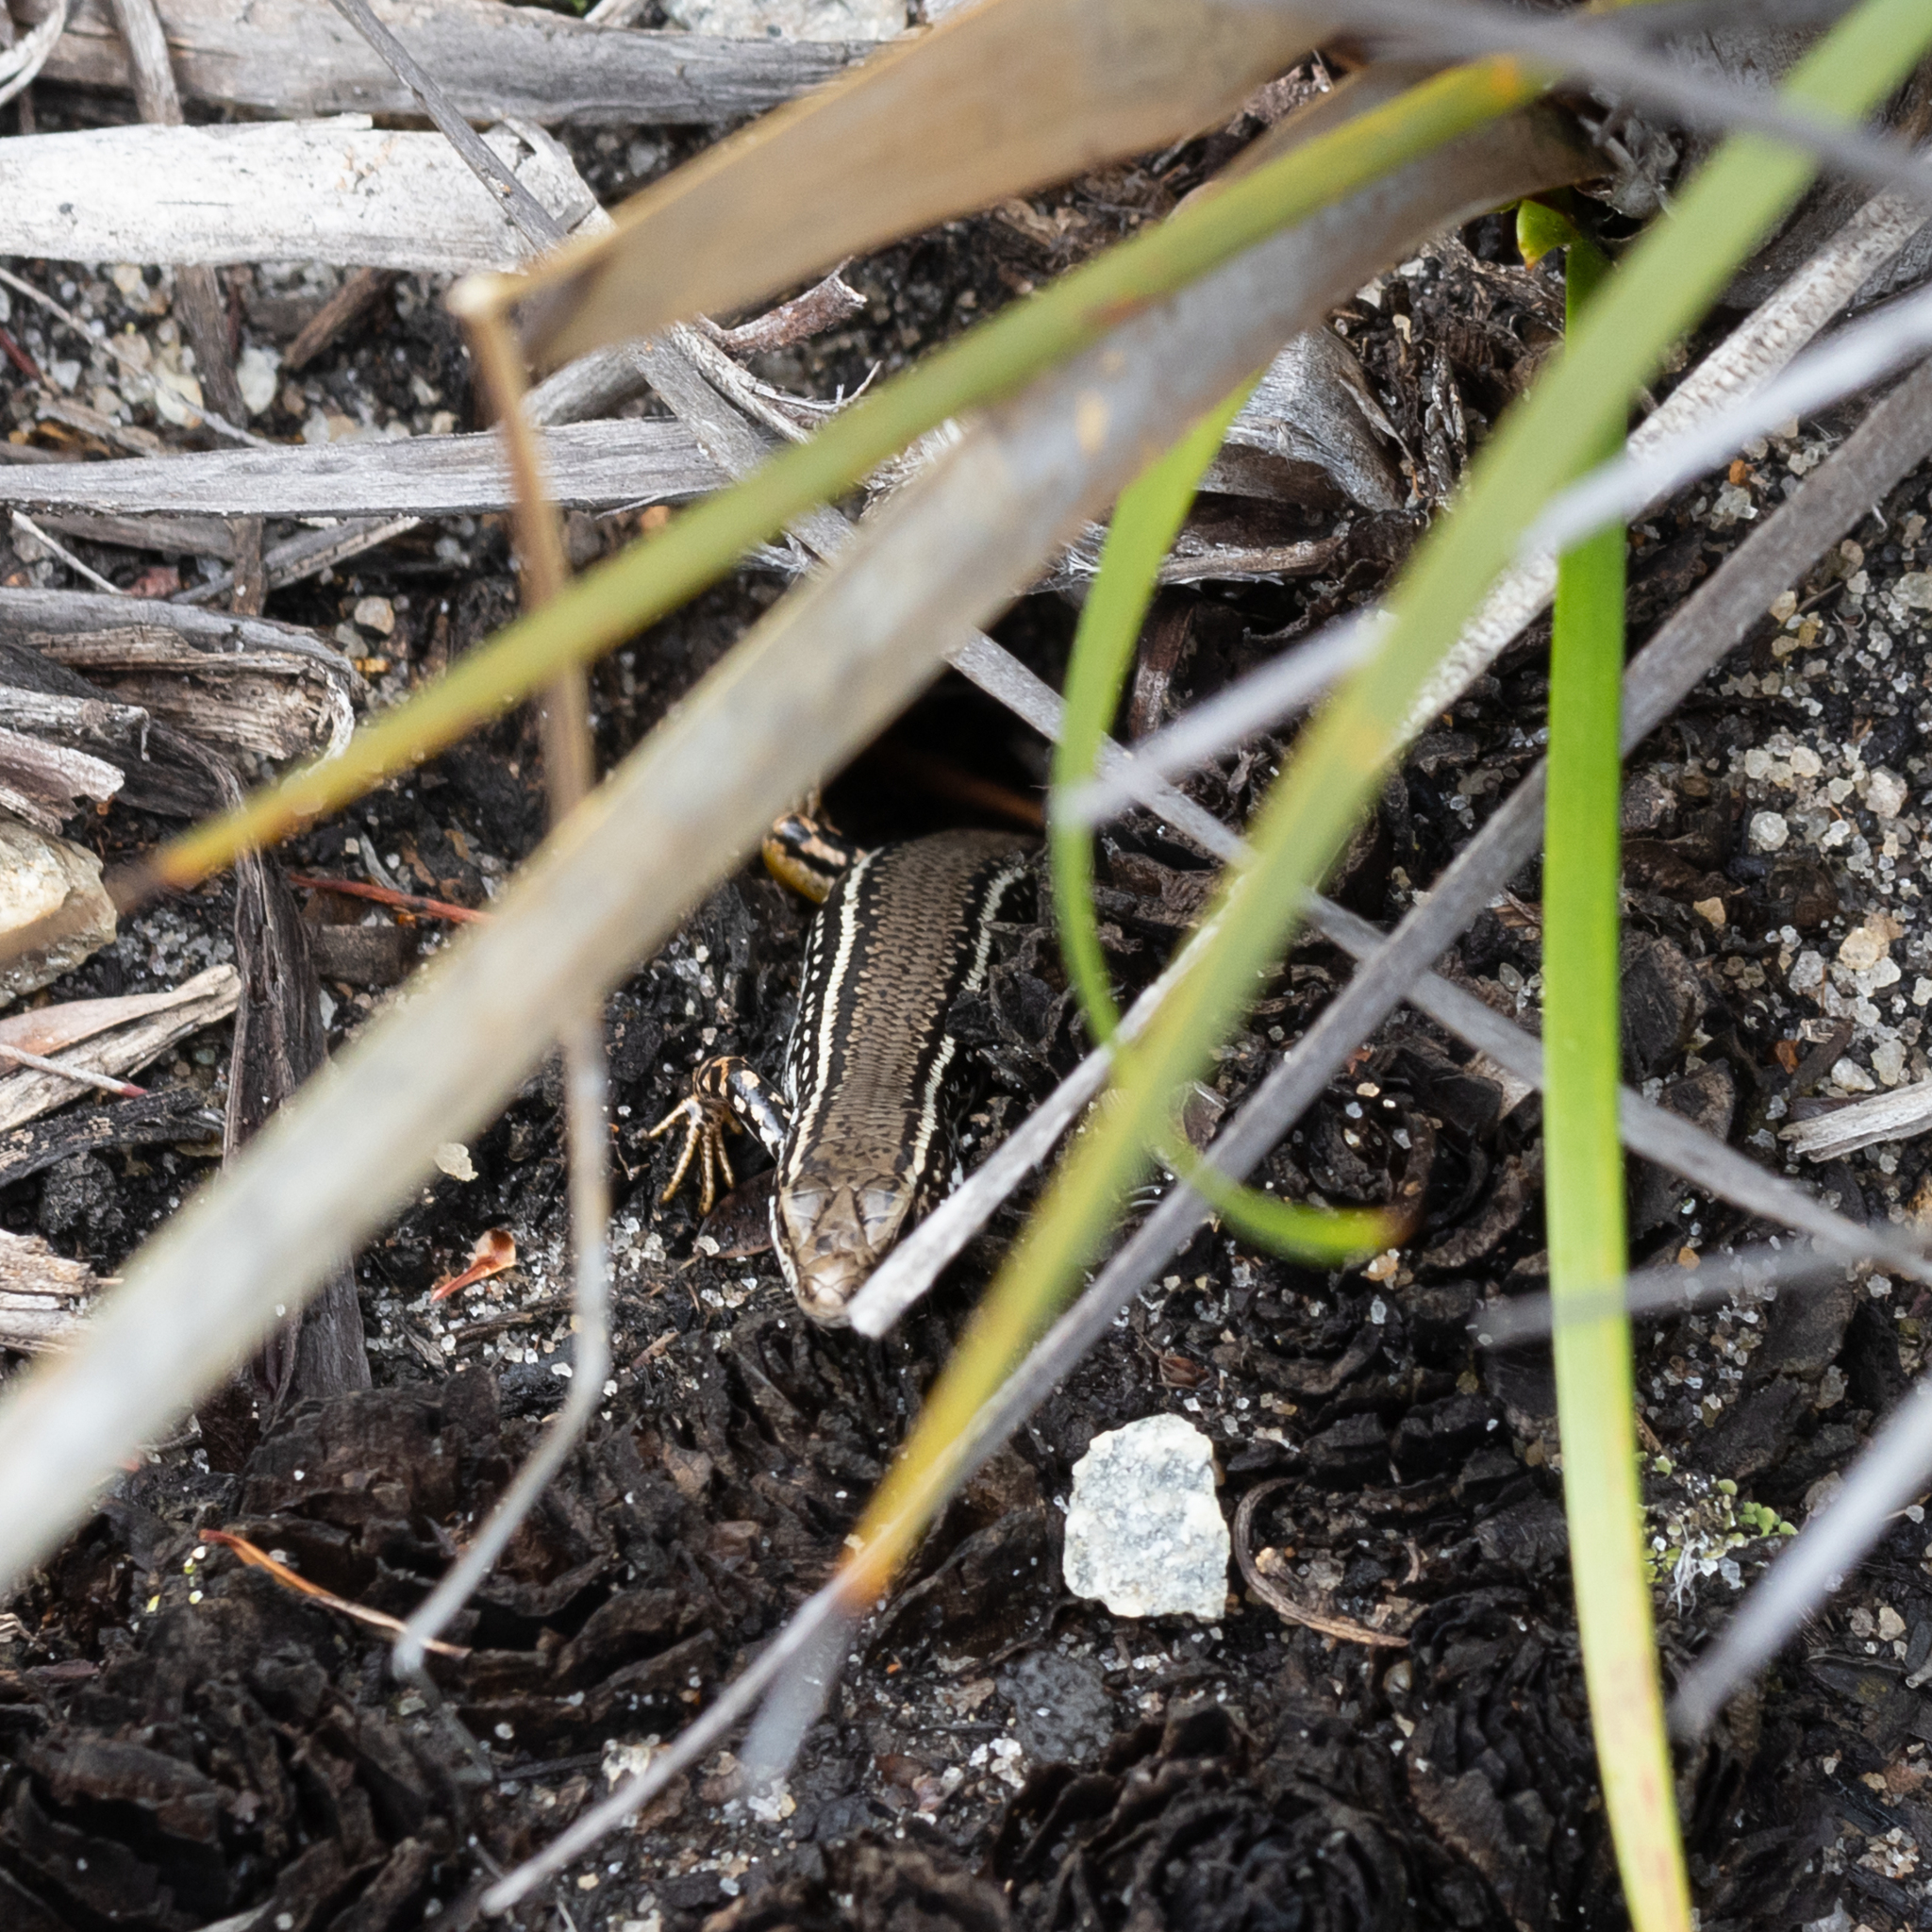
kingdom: Animalia
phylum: Chordata
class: Squamata
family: Scincidae
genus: Ctenotus
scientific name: Ctenotus labillardieri
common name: Common south-west ctenotus
